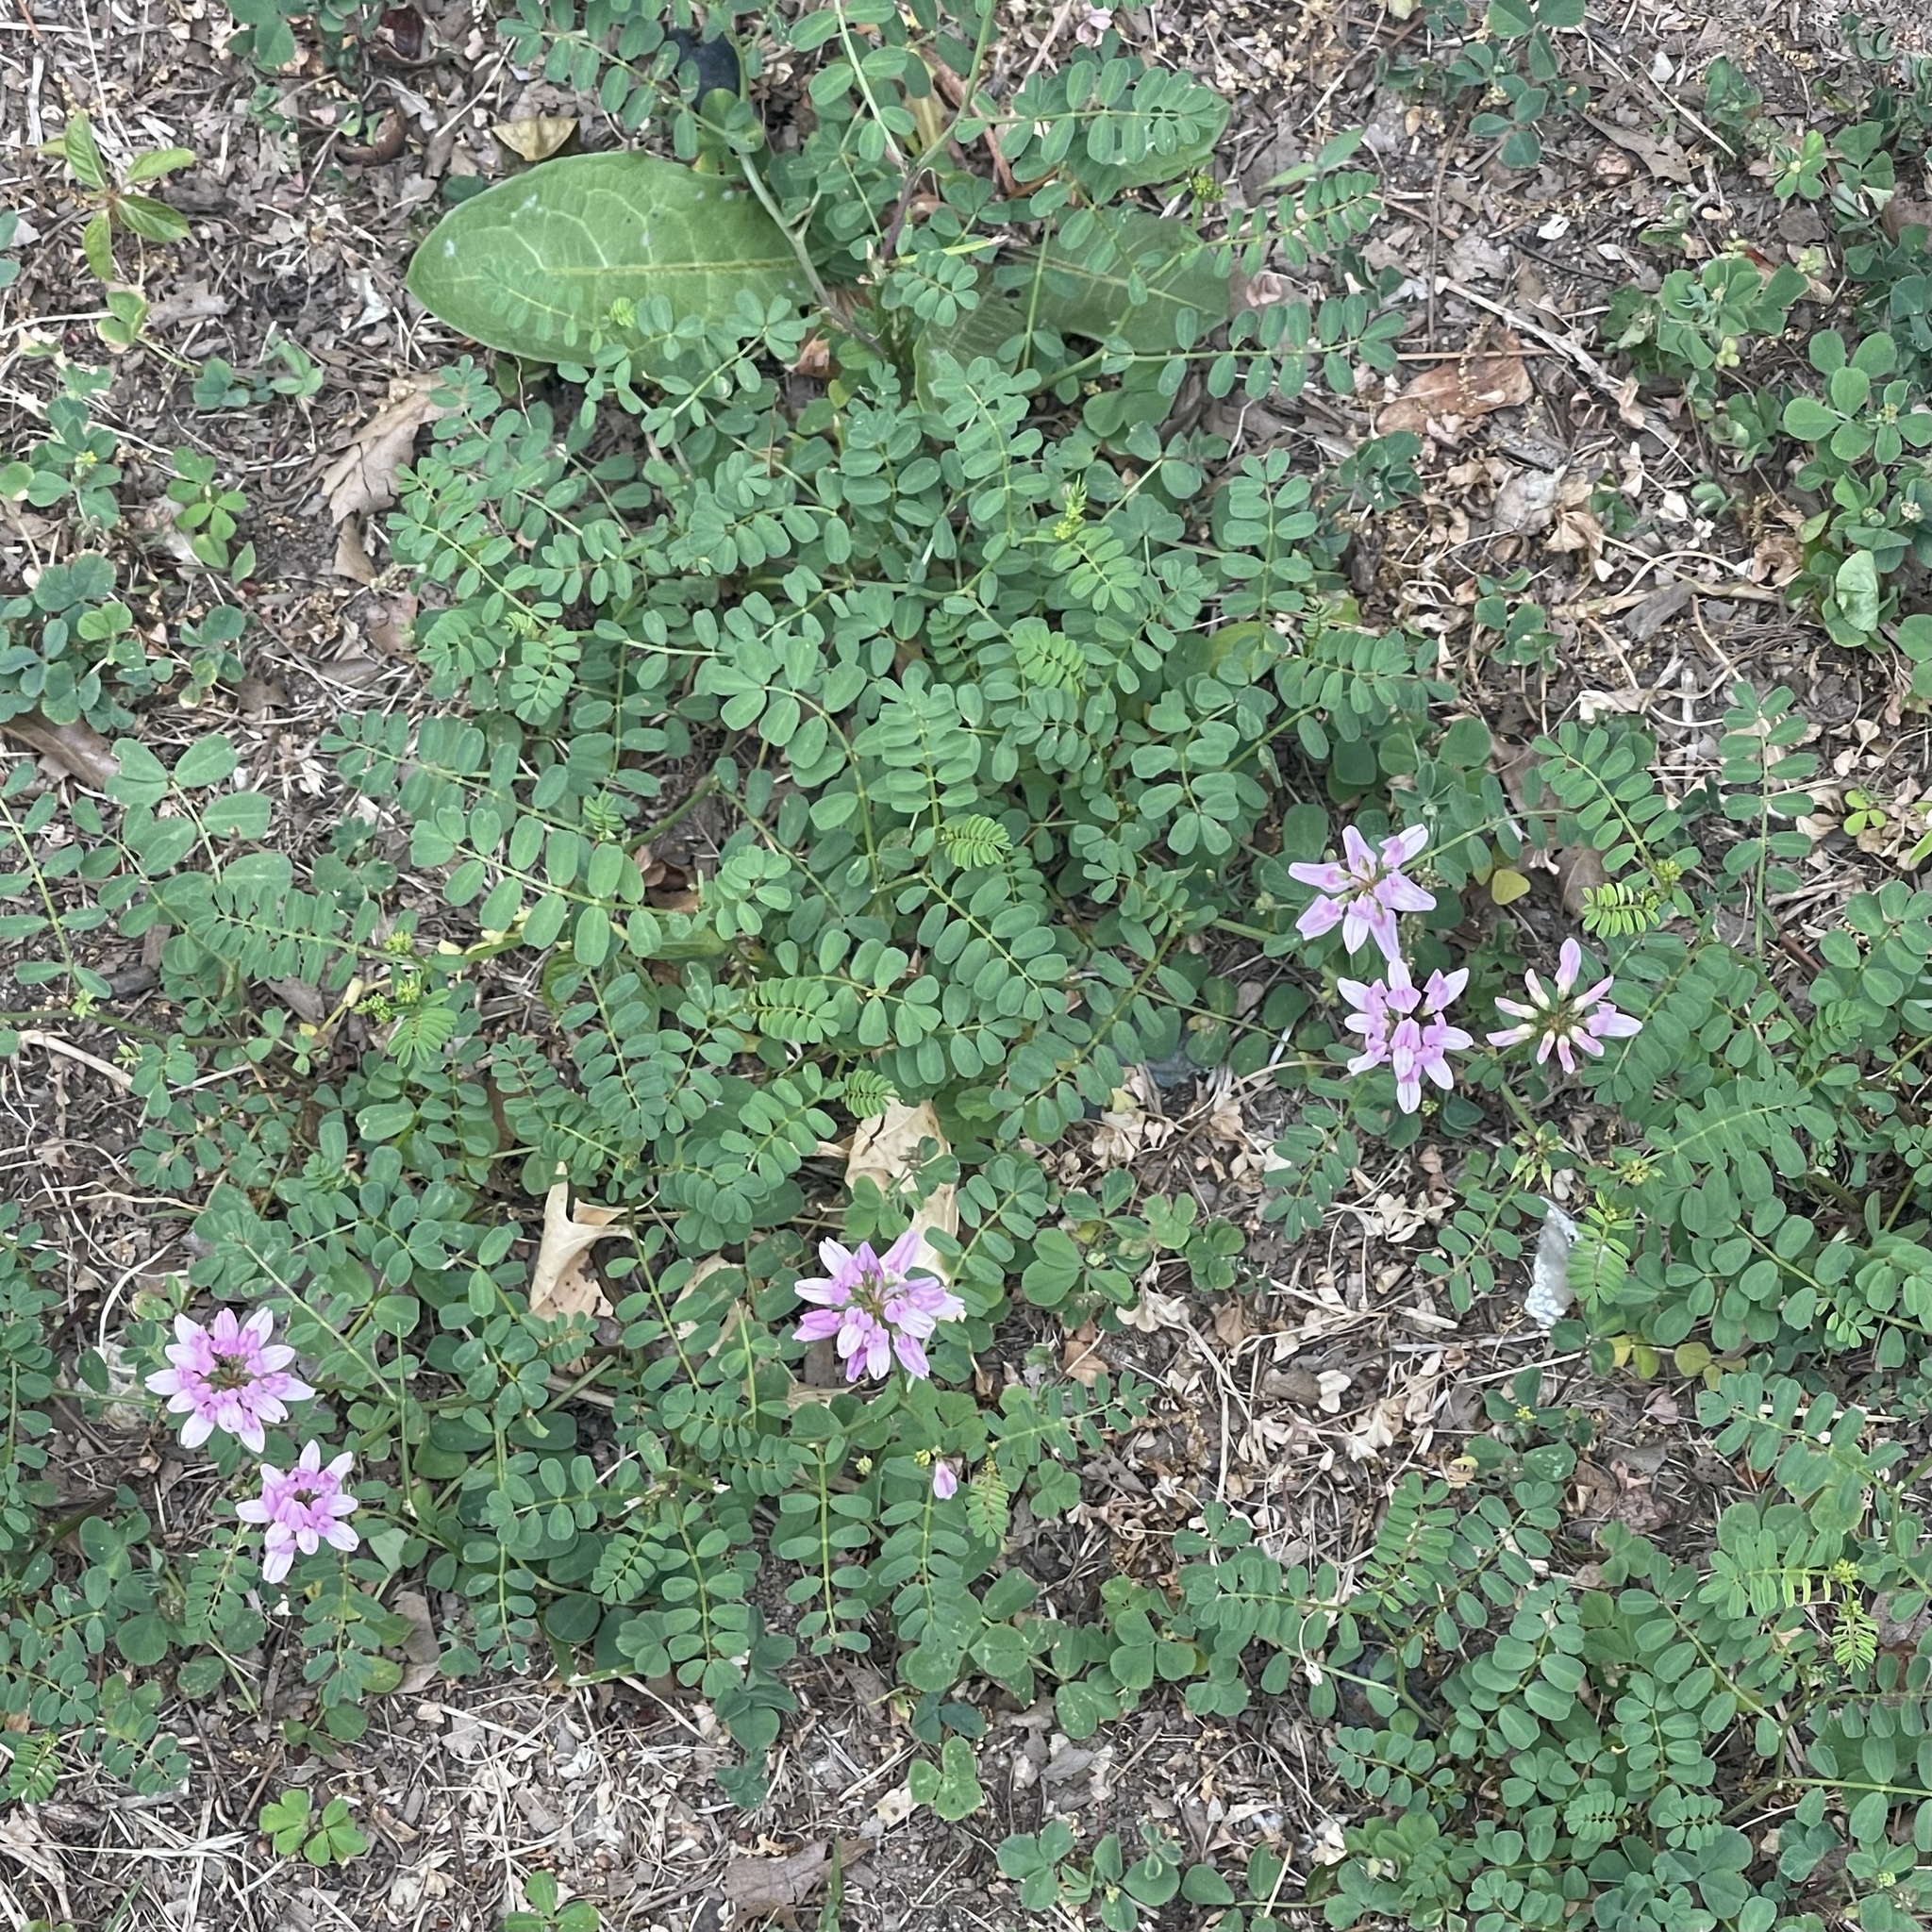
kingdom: Plantae
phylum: Tracheophyta
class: Magnoliopsida
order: Fabales
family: Fabaceae
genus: Coronilla
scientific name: Coronilla varia
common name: Crownvetch
